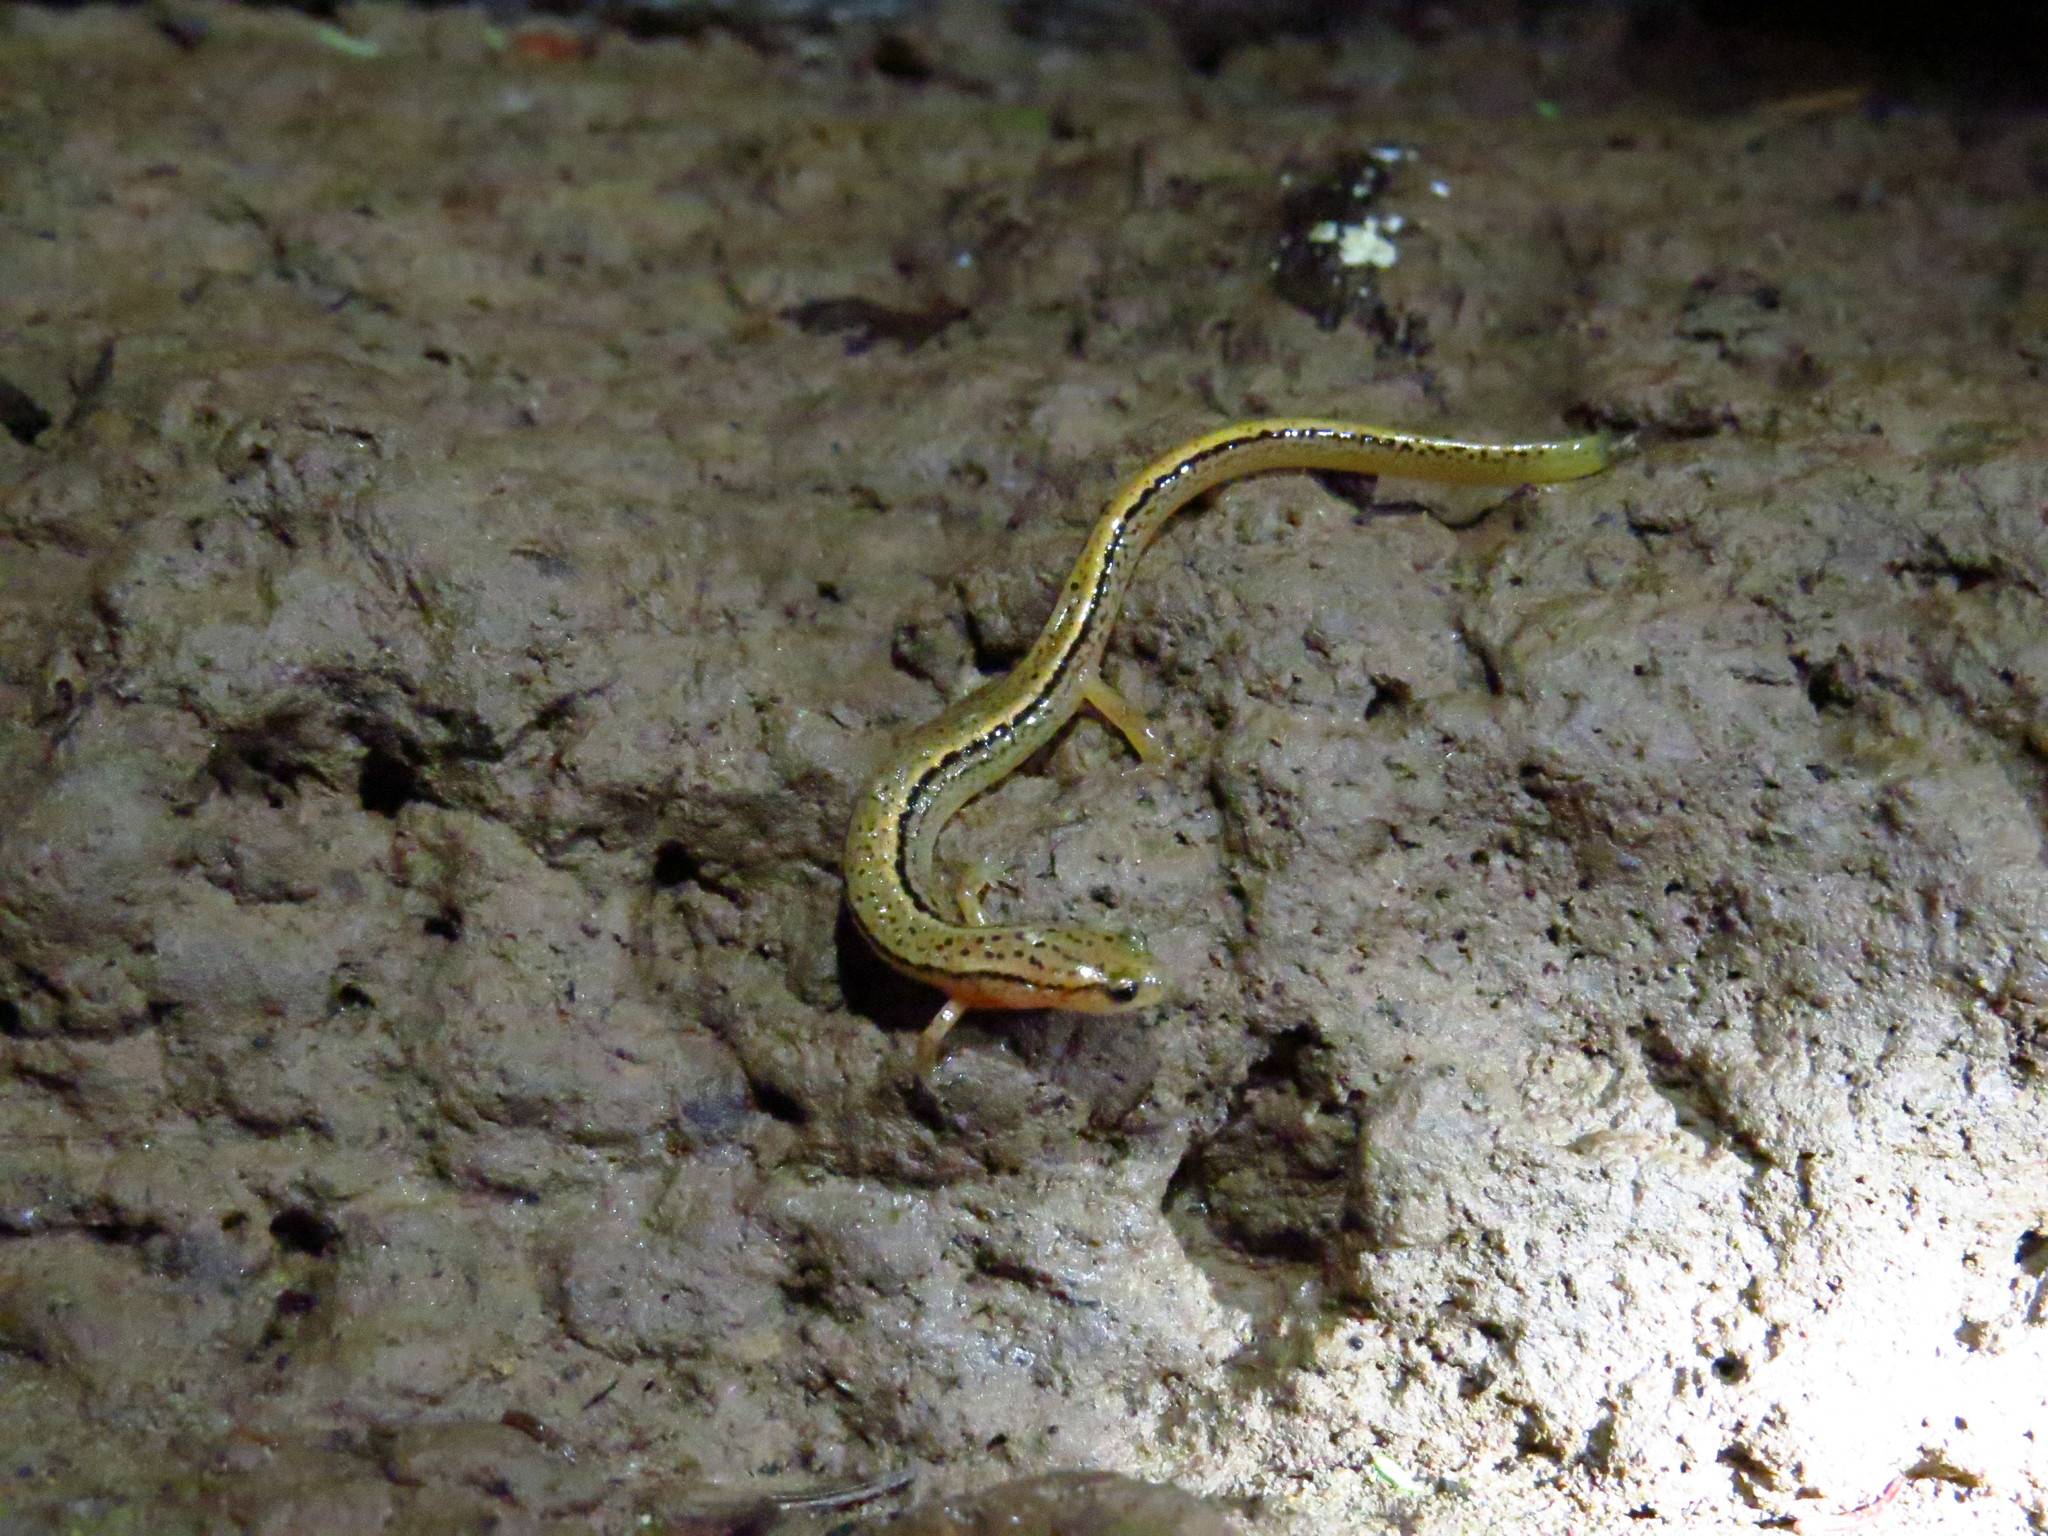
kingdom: Animalia
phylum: Chordata
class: Amphibia
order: Caudata
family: Plethodontidae
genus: Eurycea
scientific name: Eurycea bislineata
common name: Northern two-lined salamander
